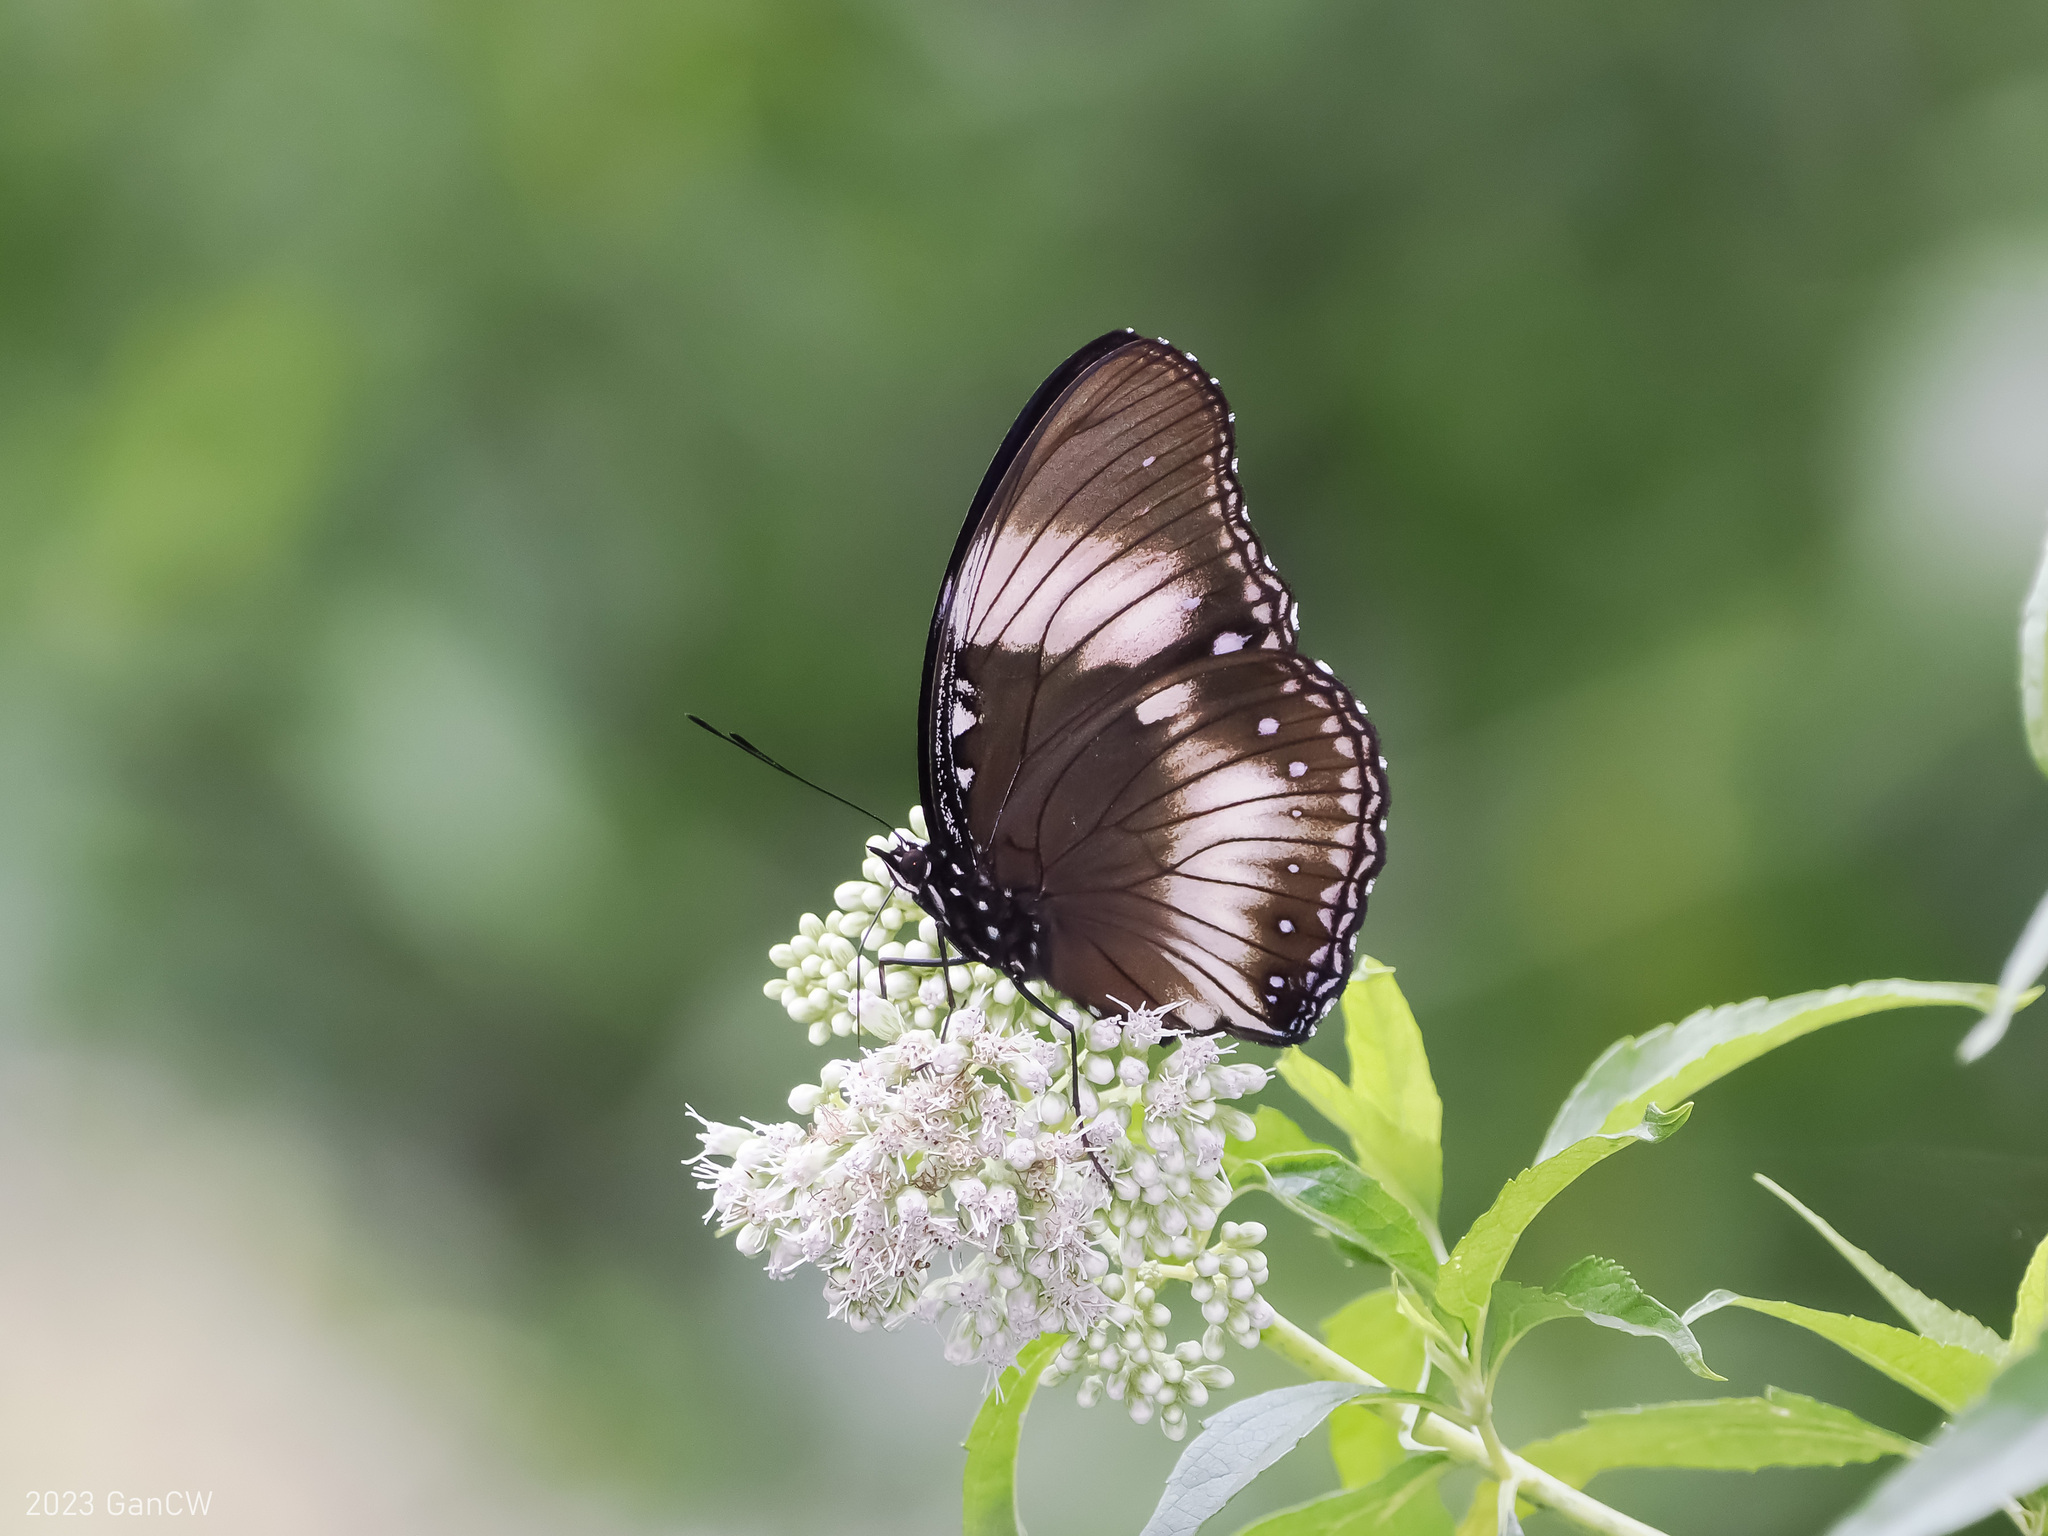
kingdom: Animalia
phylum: Arthropoda
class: Insecta
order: Lepidoptera
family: Nymphalidae
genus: Hypolimnas
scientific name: Hypolimnas diomea
